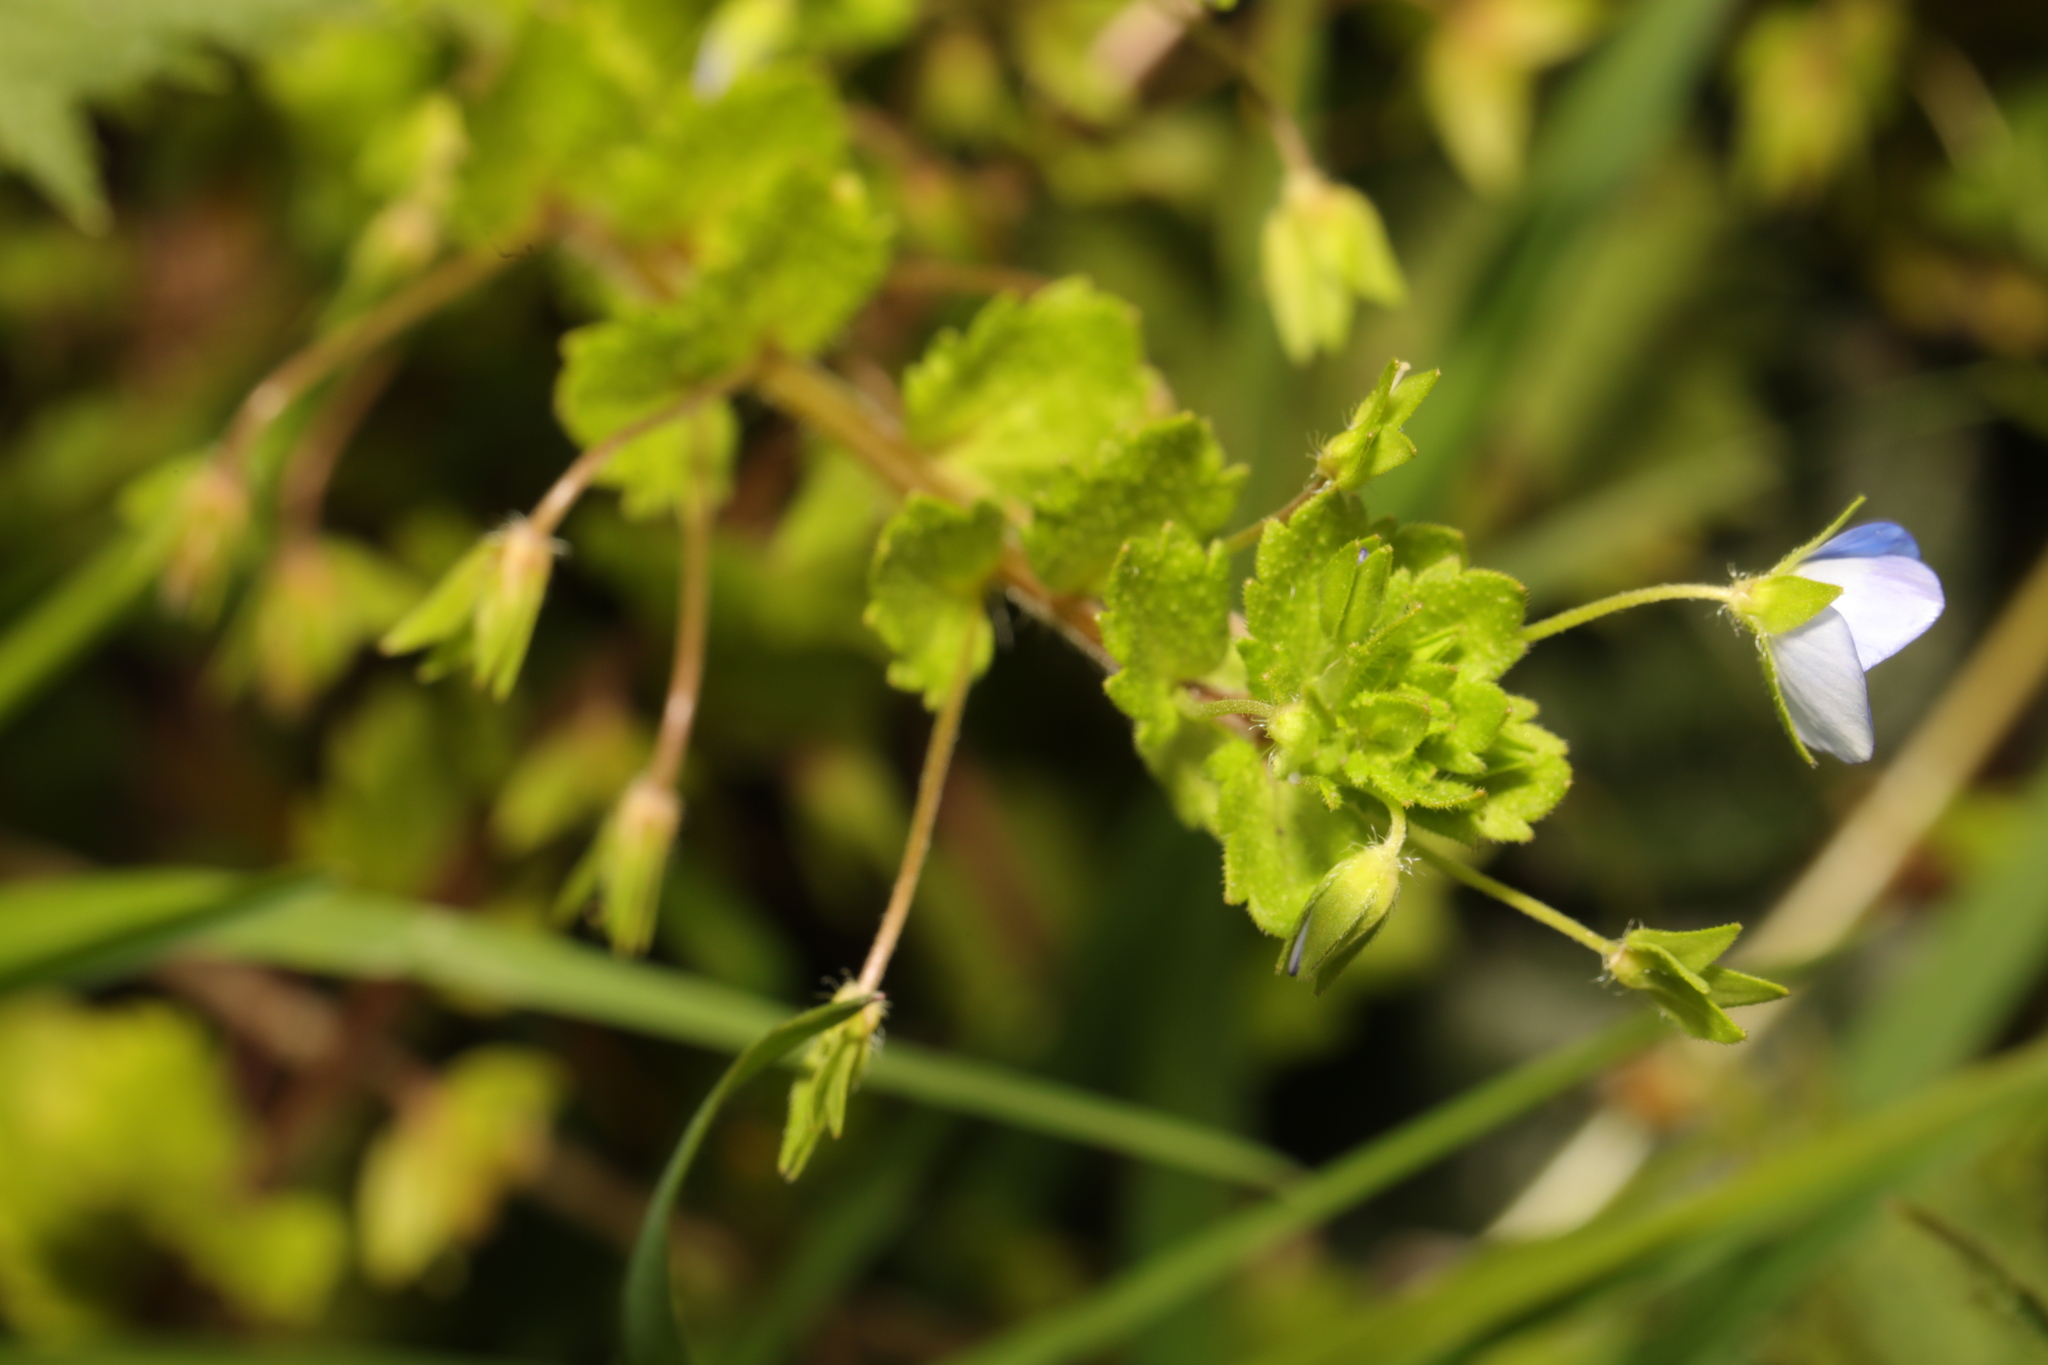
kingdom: Plantae
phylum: Tracheophyta
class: Magnoliopsida
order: Lamiales
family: Plantaginaceae
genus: Veronica
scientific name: Veronica persica
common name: Common field-speedwell
